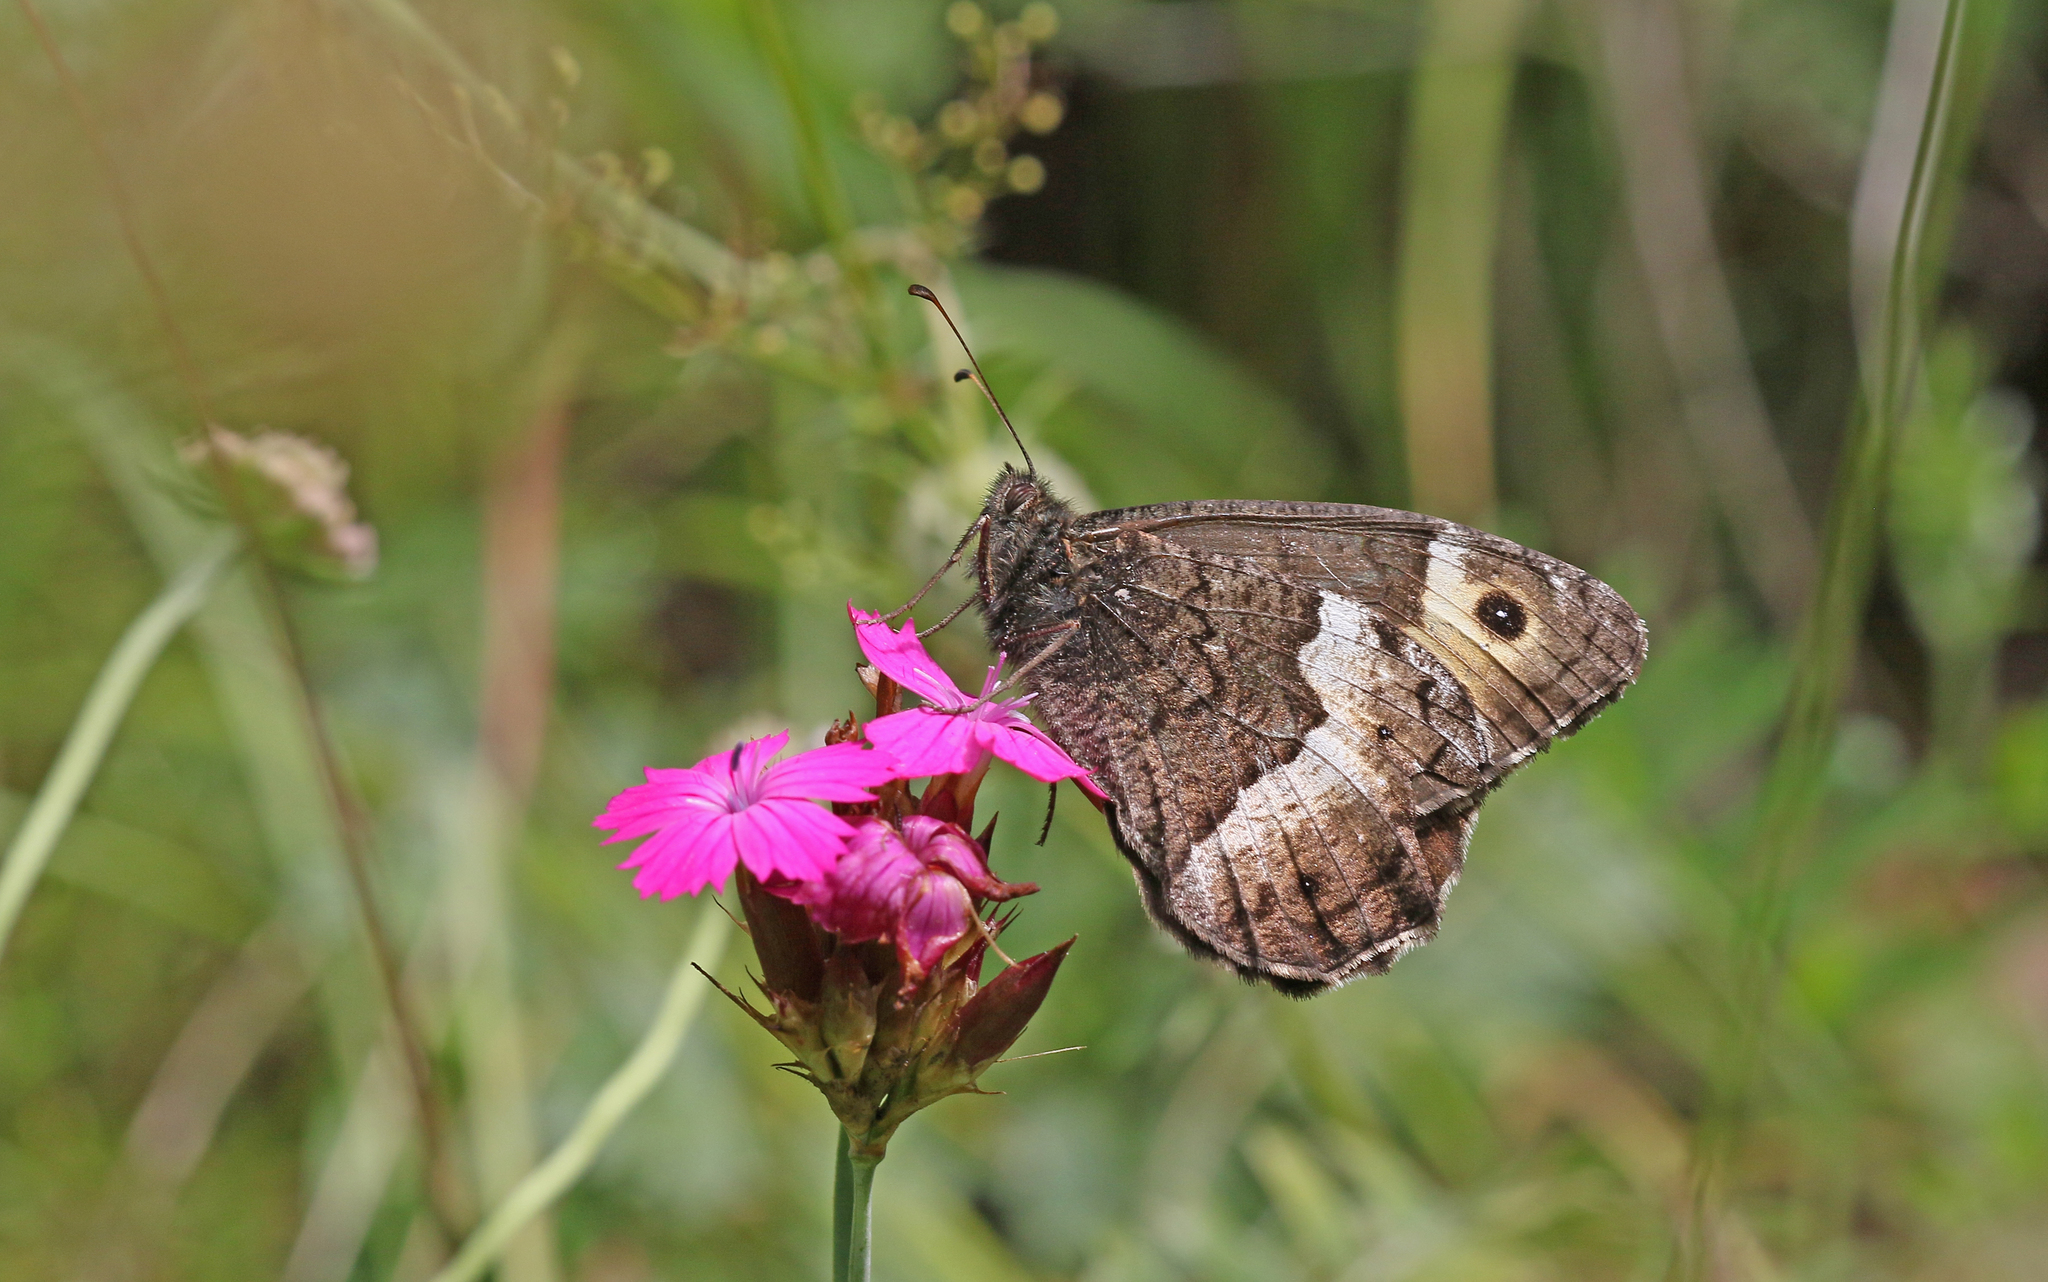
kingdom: Animalia
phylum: Arthropoda
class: Insecta
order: Lepidoptera
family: Nymphalidae
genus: Hipparchia
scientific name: Hipparchia hermione
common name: Rock grayling
